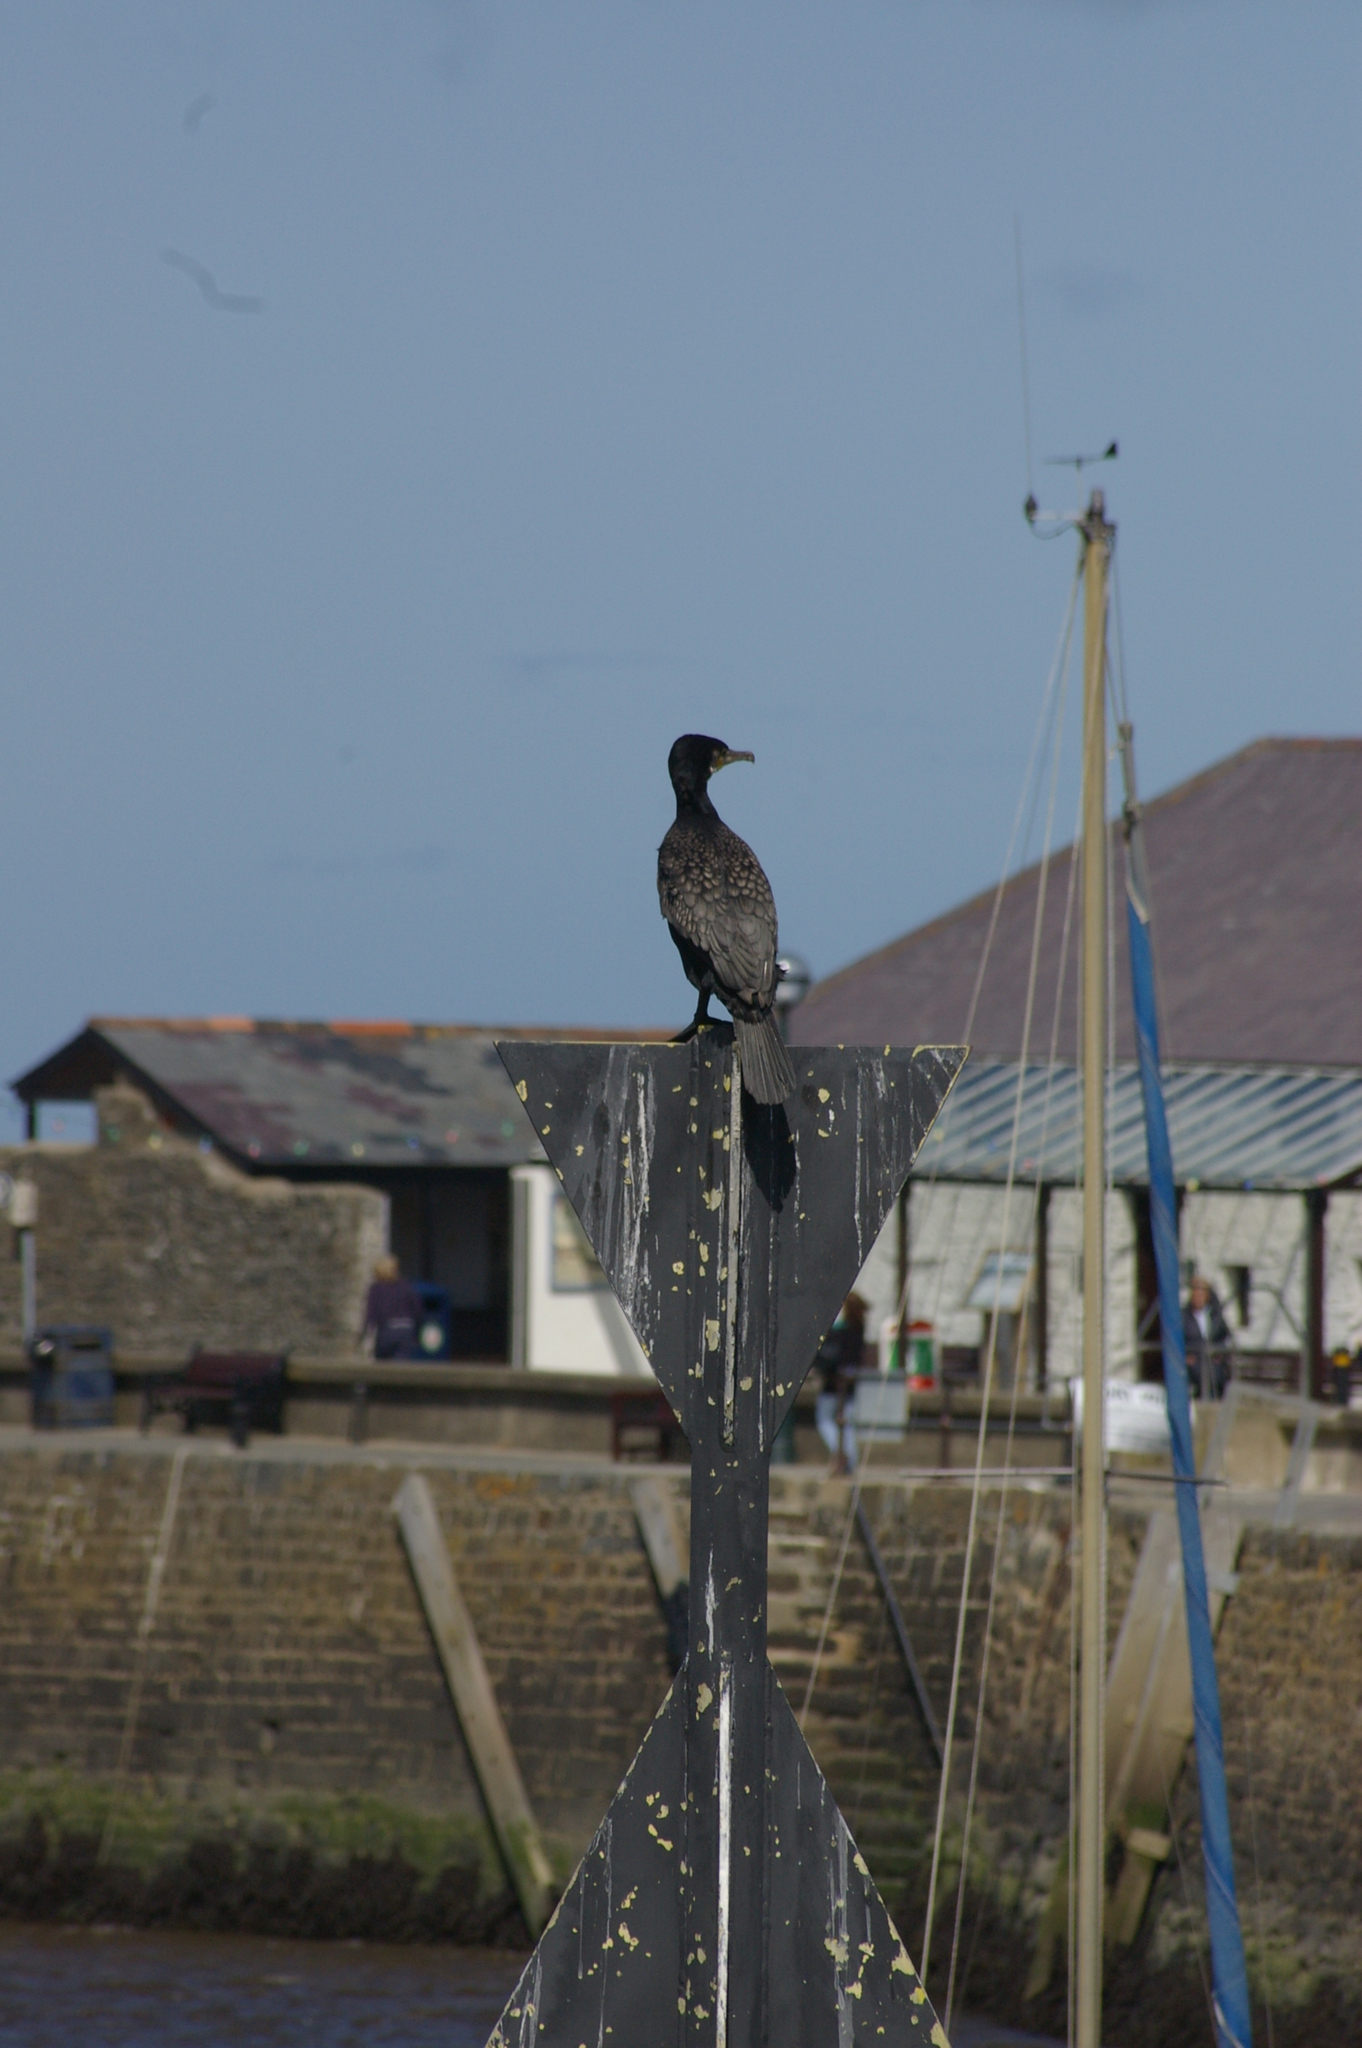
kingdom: Animalia
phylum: Chordata
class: Aves
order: Suliformes
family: Phalacrocoracidae
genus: Phalacrocorax
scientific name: Phalacrocorax carbo
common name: Great cormorant
